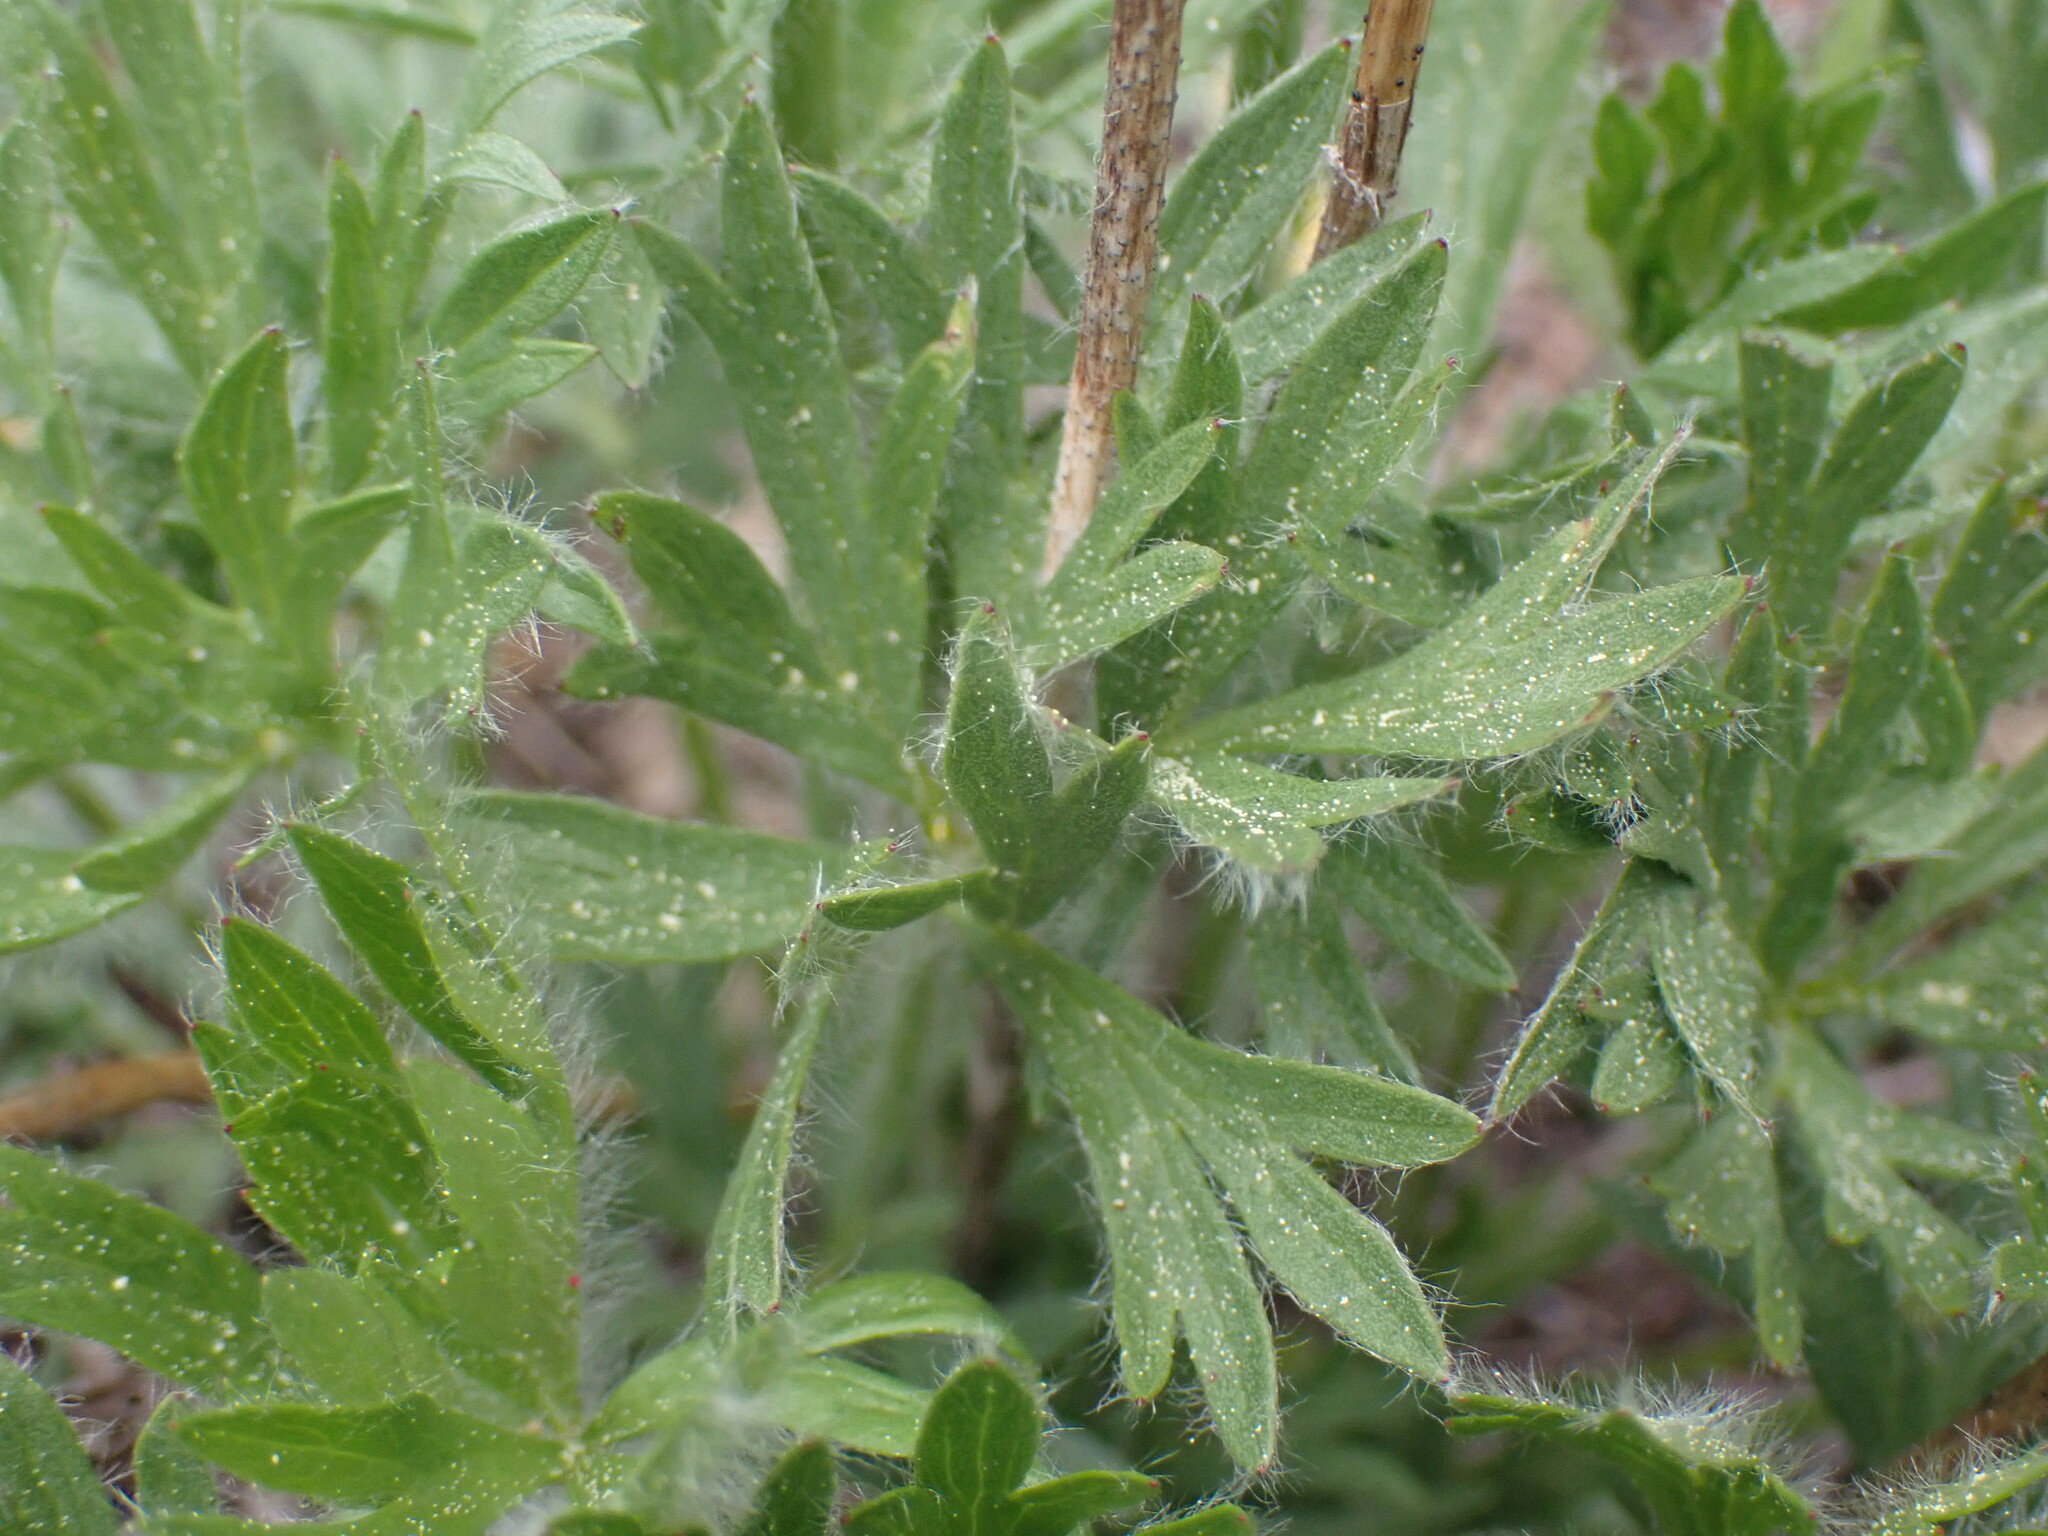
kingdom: Plantae
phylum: Tracheophyta
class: Magnoliopsida
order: Ranunculales
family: Ranunculaceae
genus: Anemone
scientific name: Anemone multifida
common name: Bird's-foot anemone
